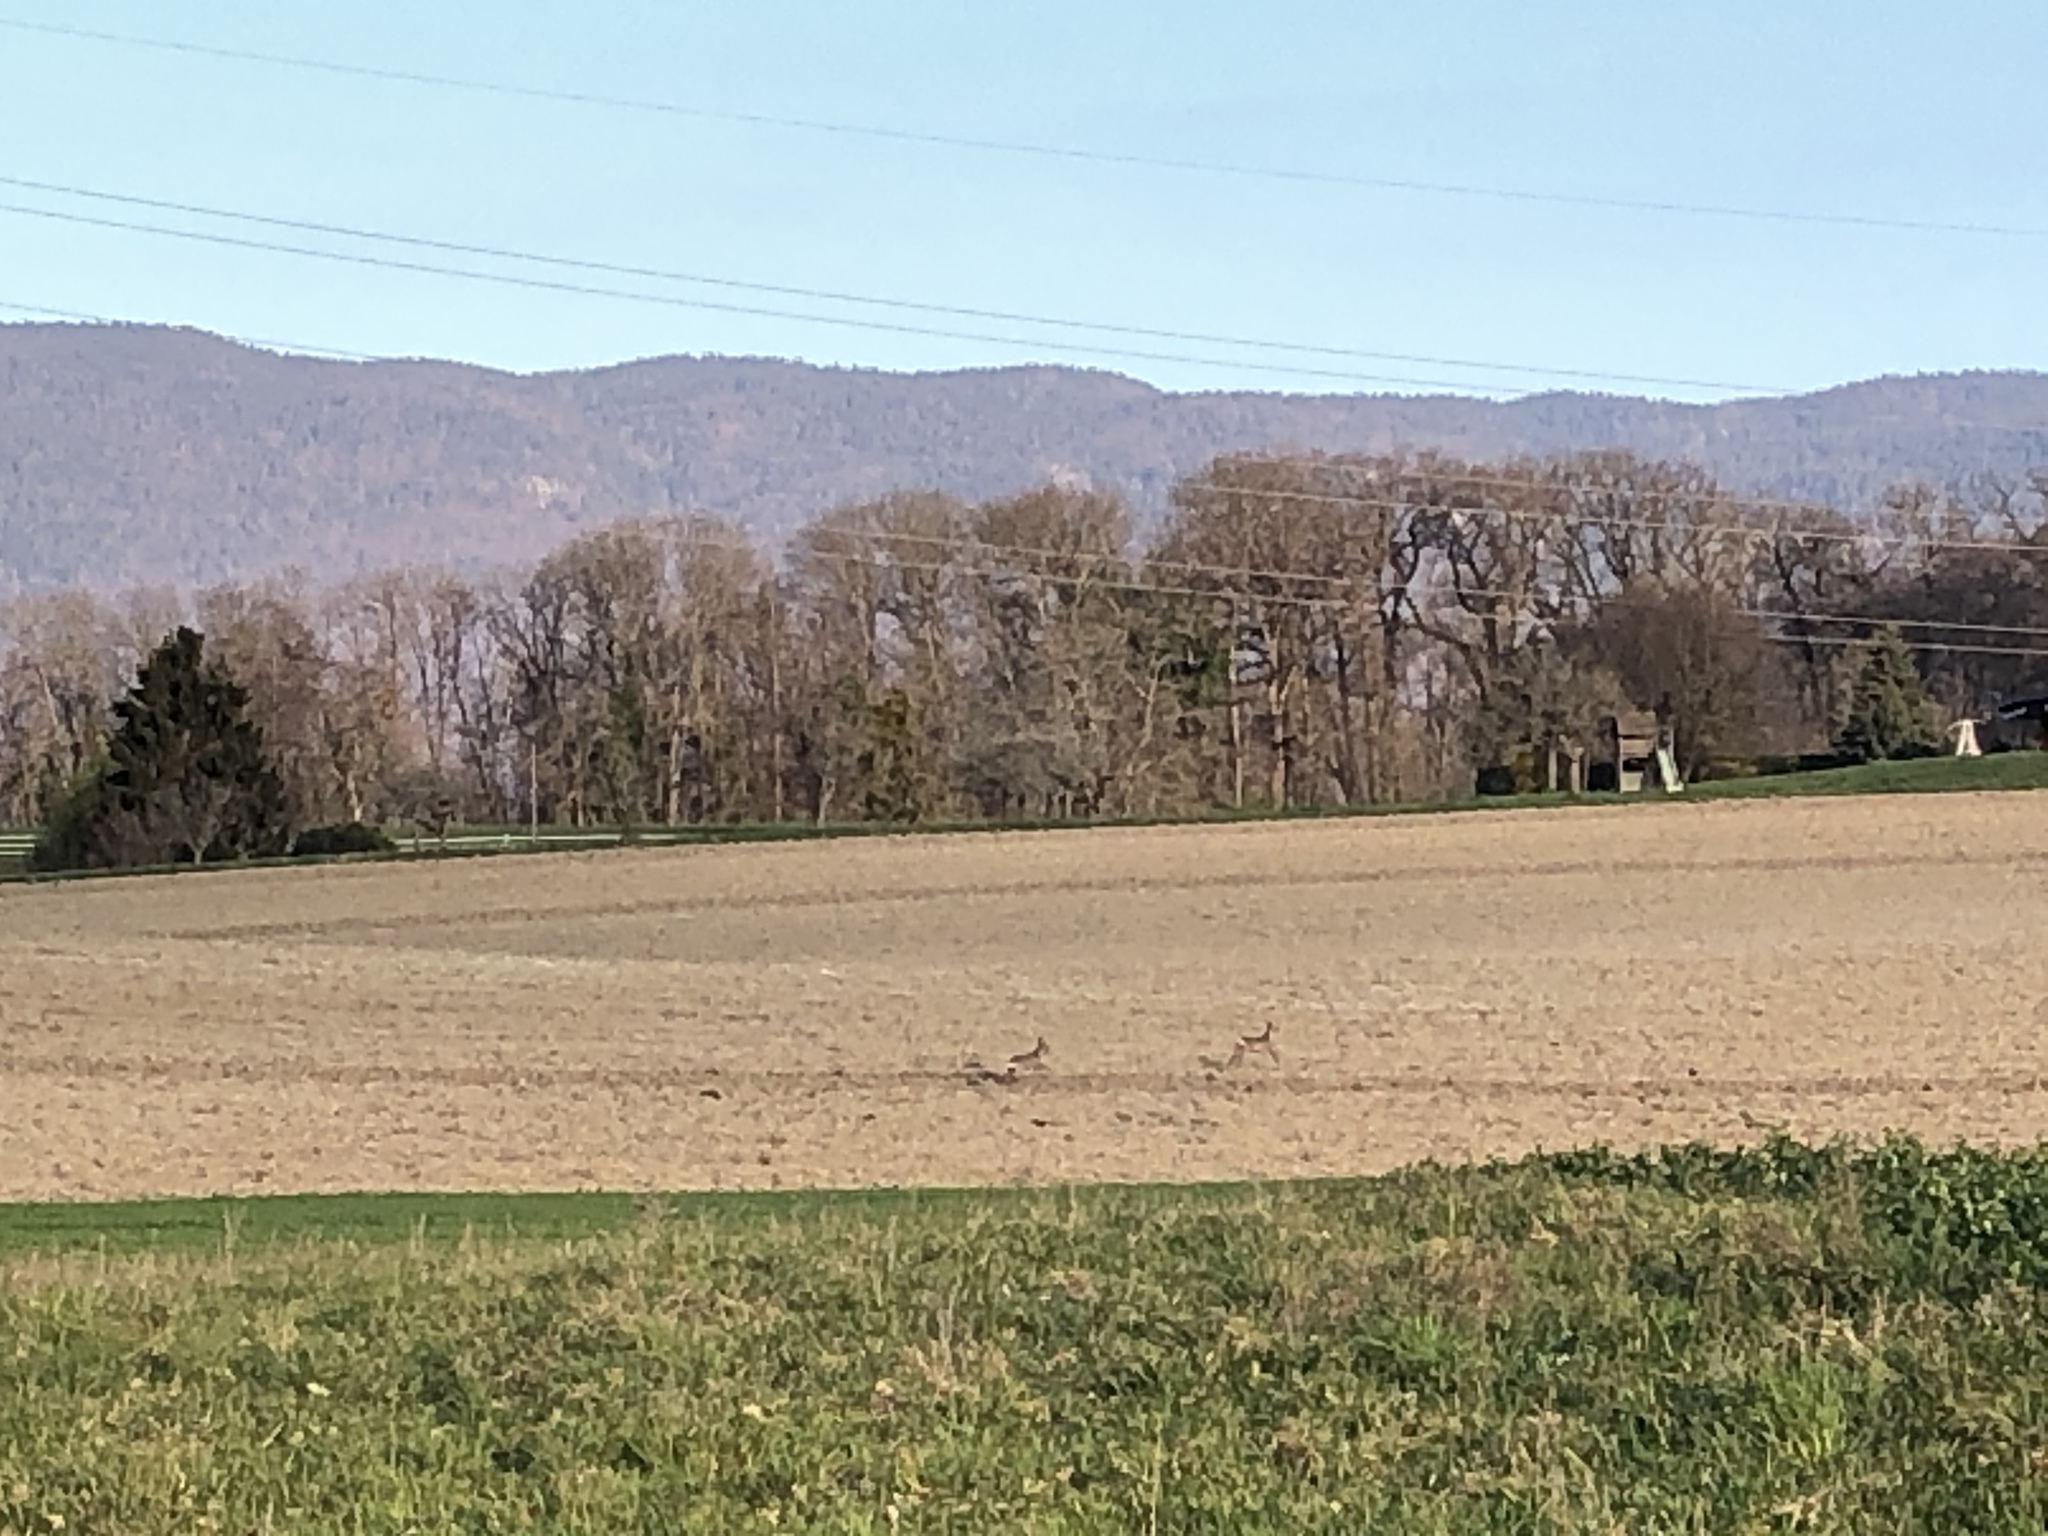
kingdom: Animalia
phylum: Chordata
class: Mammalia
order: Artiodactyla
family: Cervidae
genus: Capreolus
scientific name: Capreolus capreolus
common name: Western roe deer
